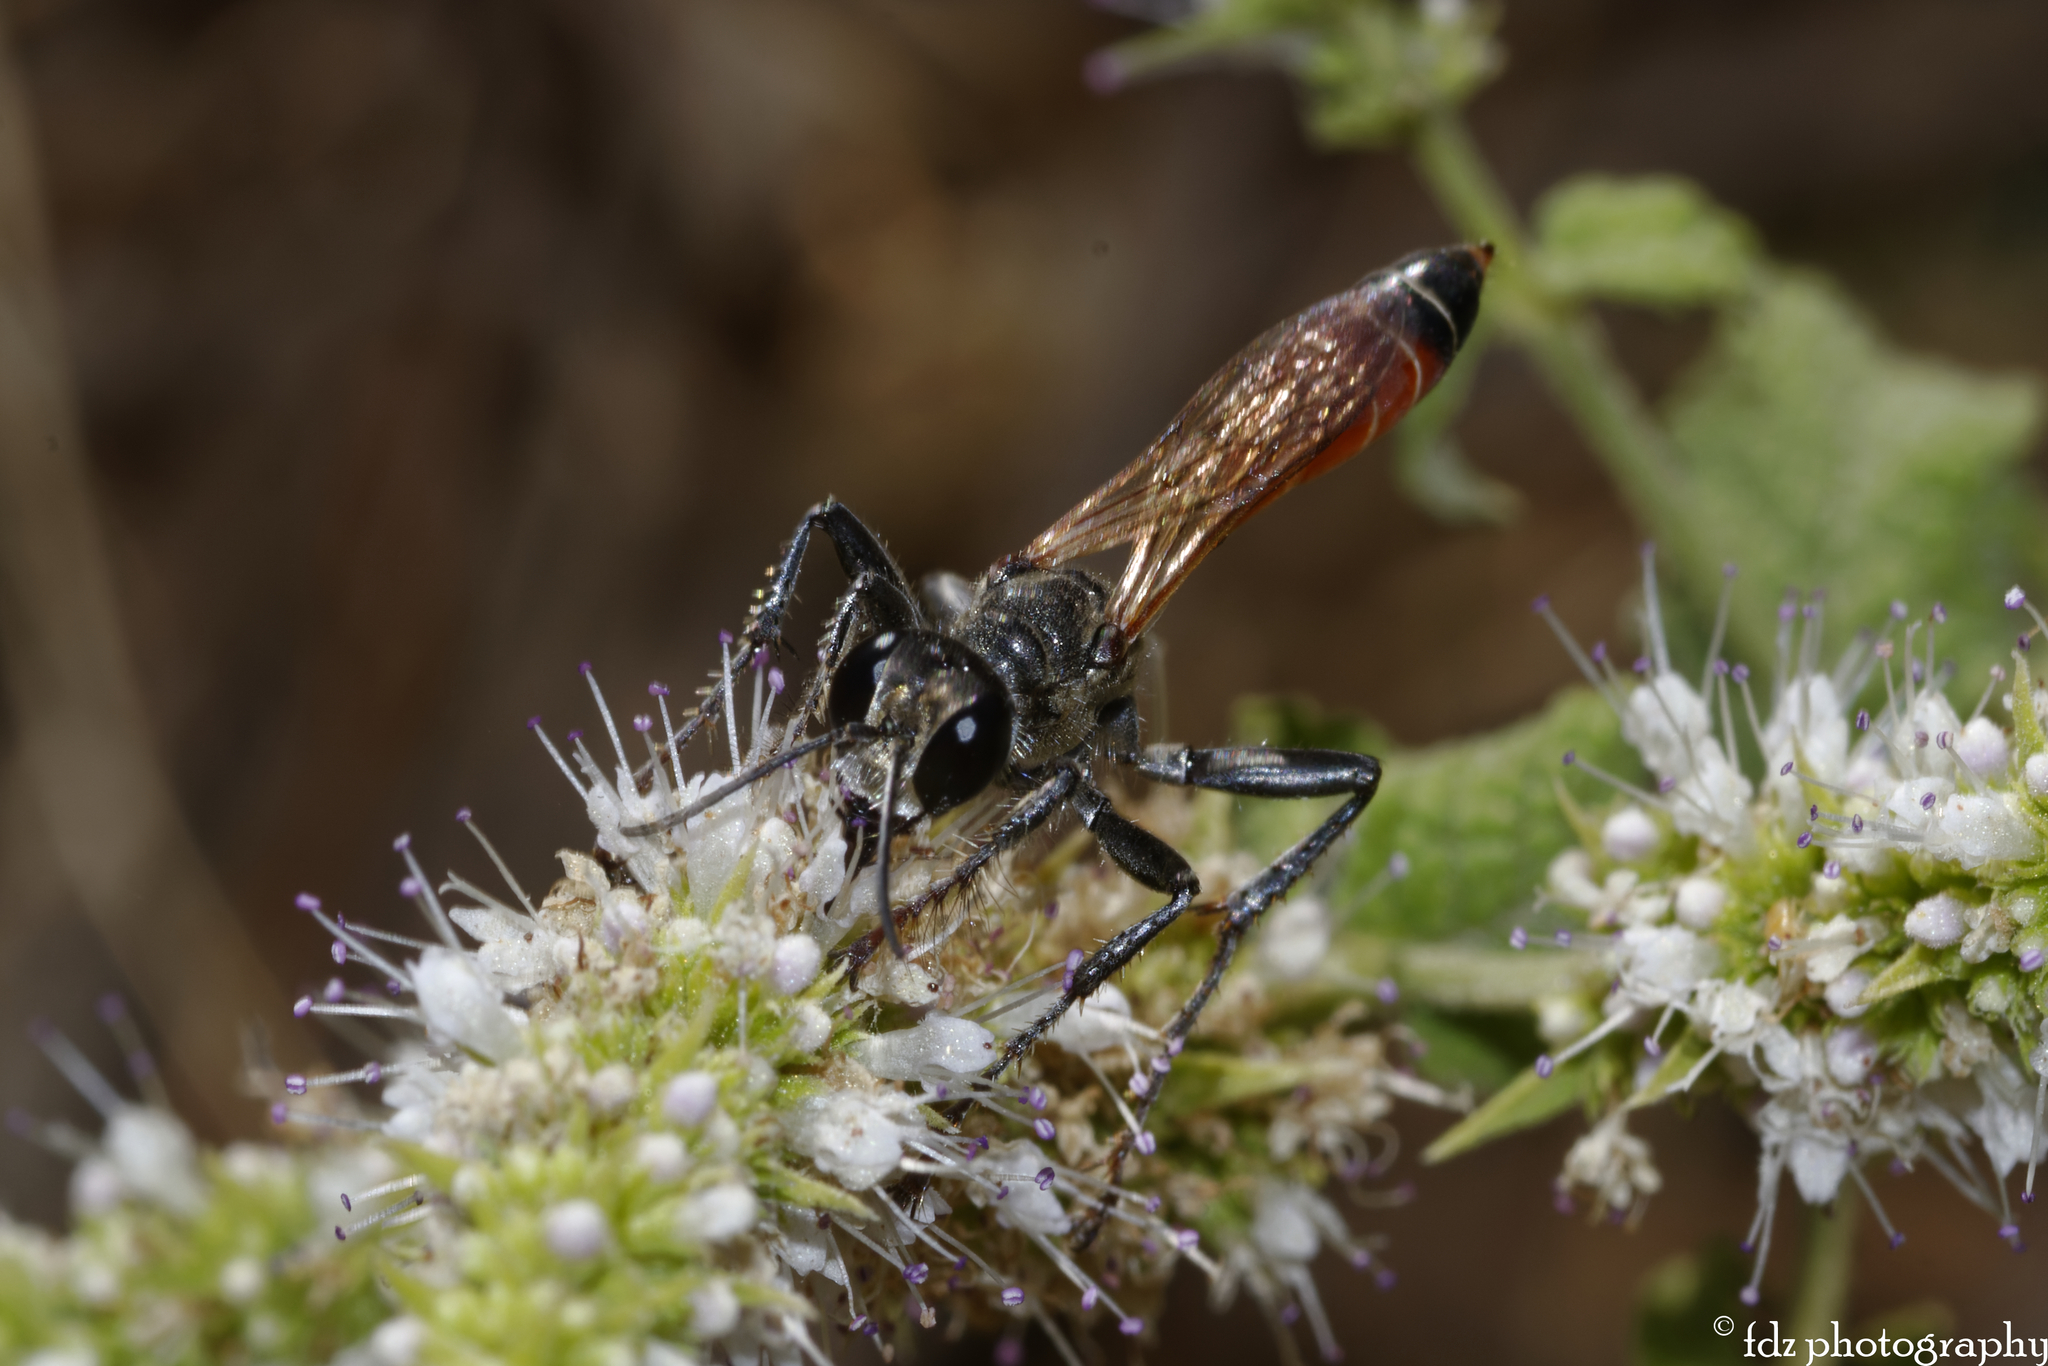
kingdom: Animalia
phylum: Arthropoda
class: Insecta
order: Hymenoptera
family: Sphecidae
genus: Prionyx
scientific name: Prionyx kirbii
